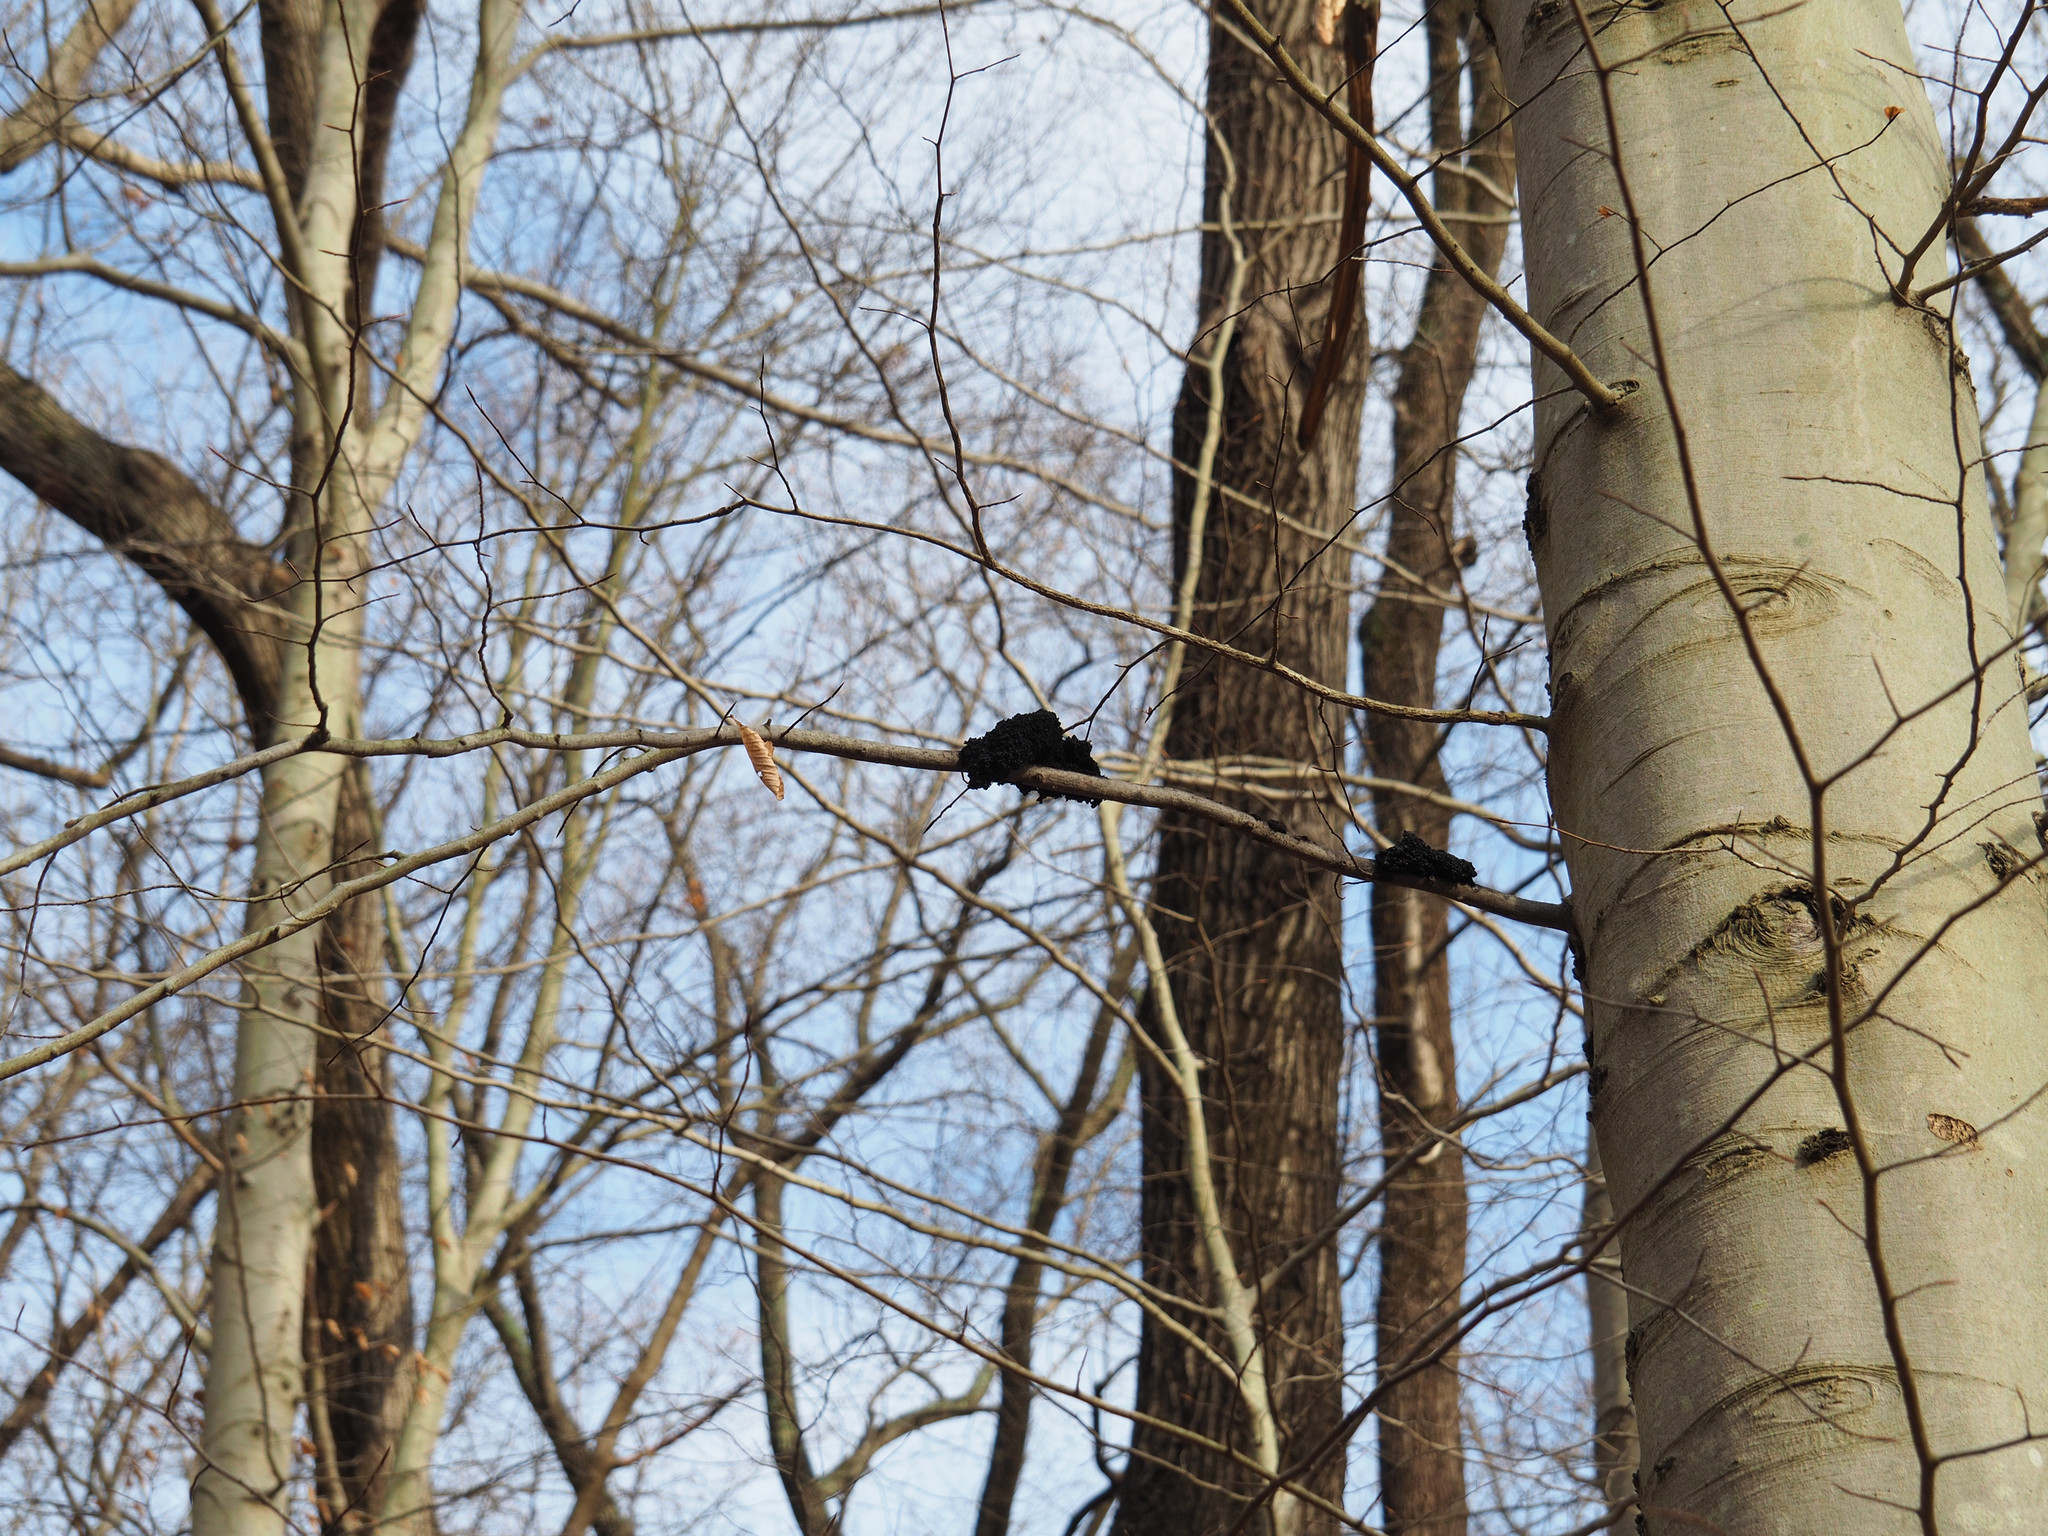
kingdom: Plantae
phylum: Tracheophyta
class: Magnoliopsida
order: Fagales
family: Fagaceae
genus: Fagus
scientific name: Fagus grandifolia
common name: American beech
